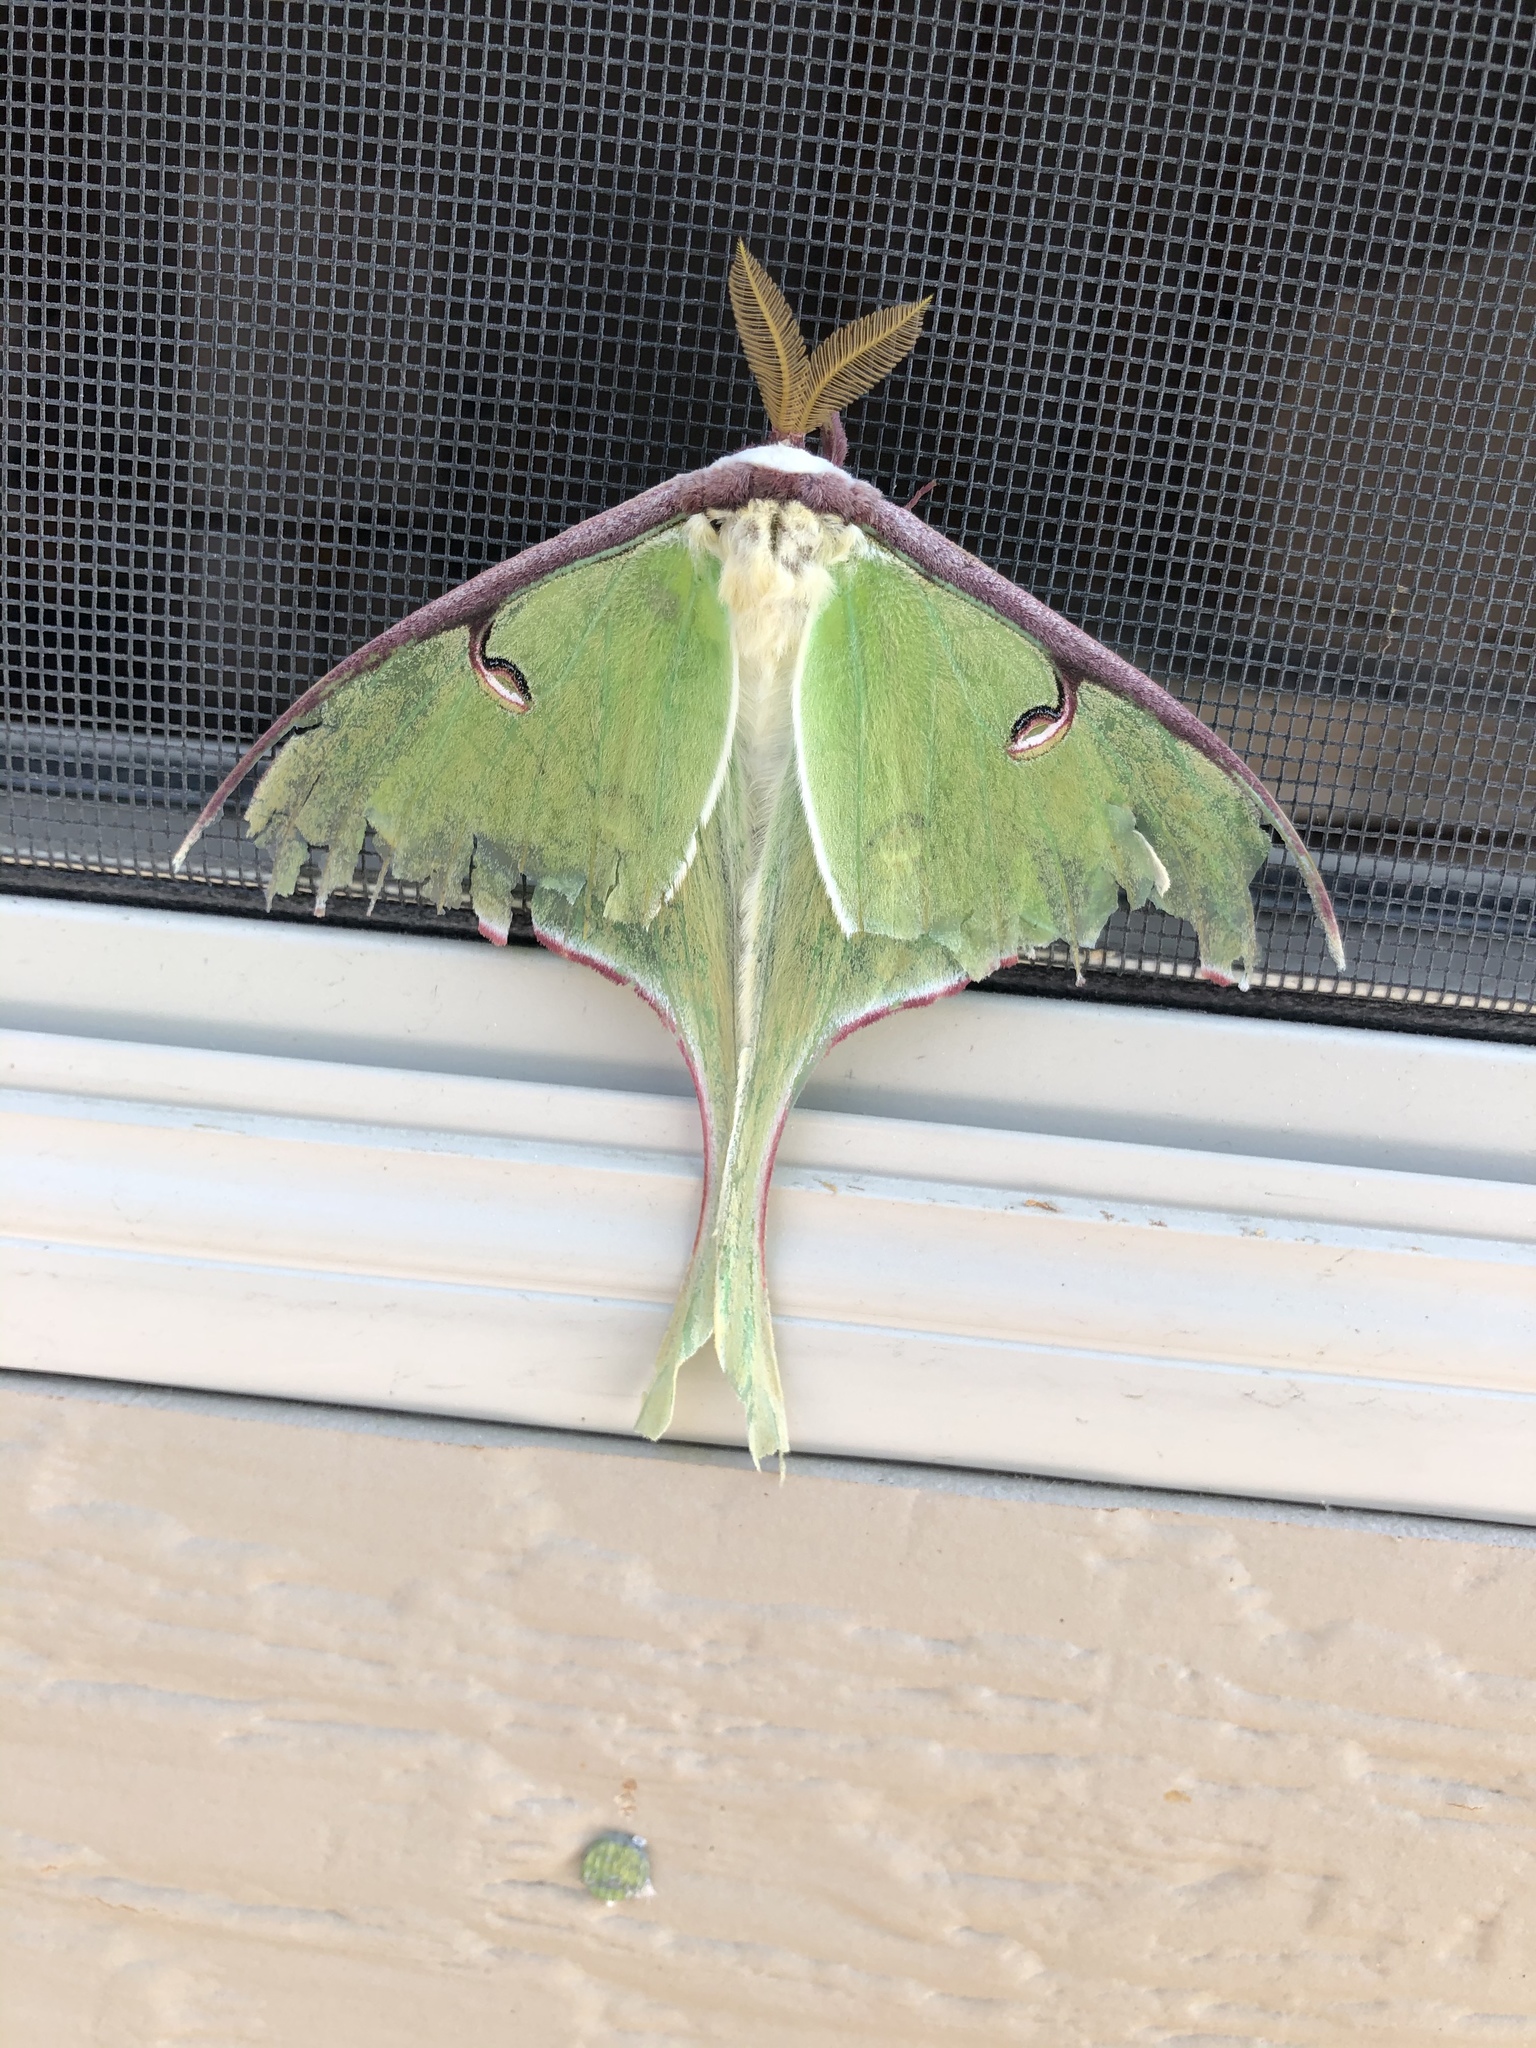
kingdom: Animalia
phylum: Arthropoda
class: Insecta
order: Lepidoptera
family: Saturniidae
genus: Actias
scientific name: Actias luna
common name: Luna moth
